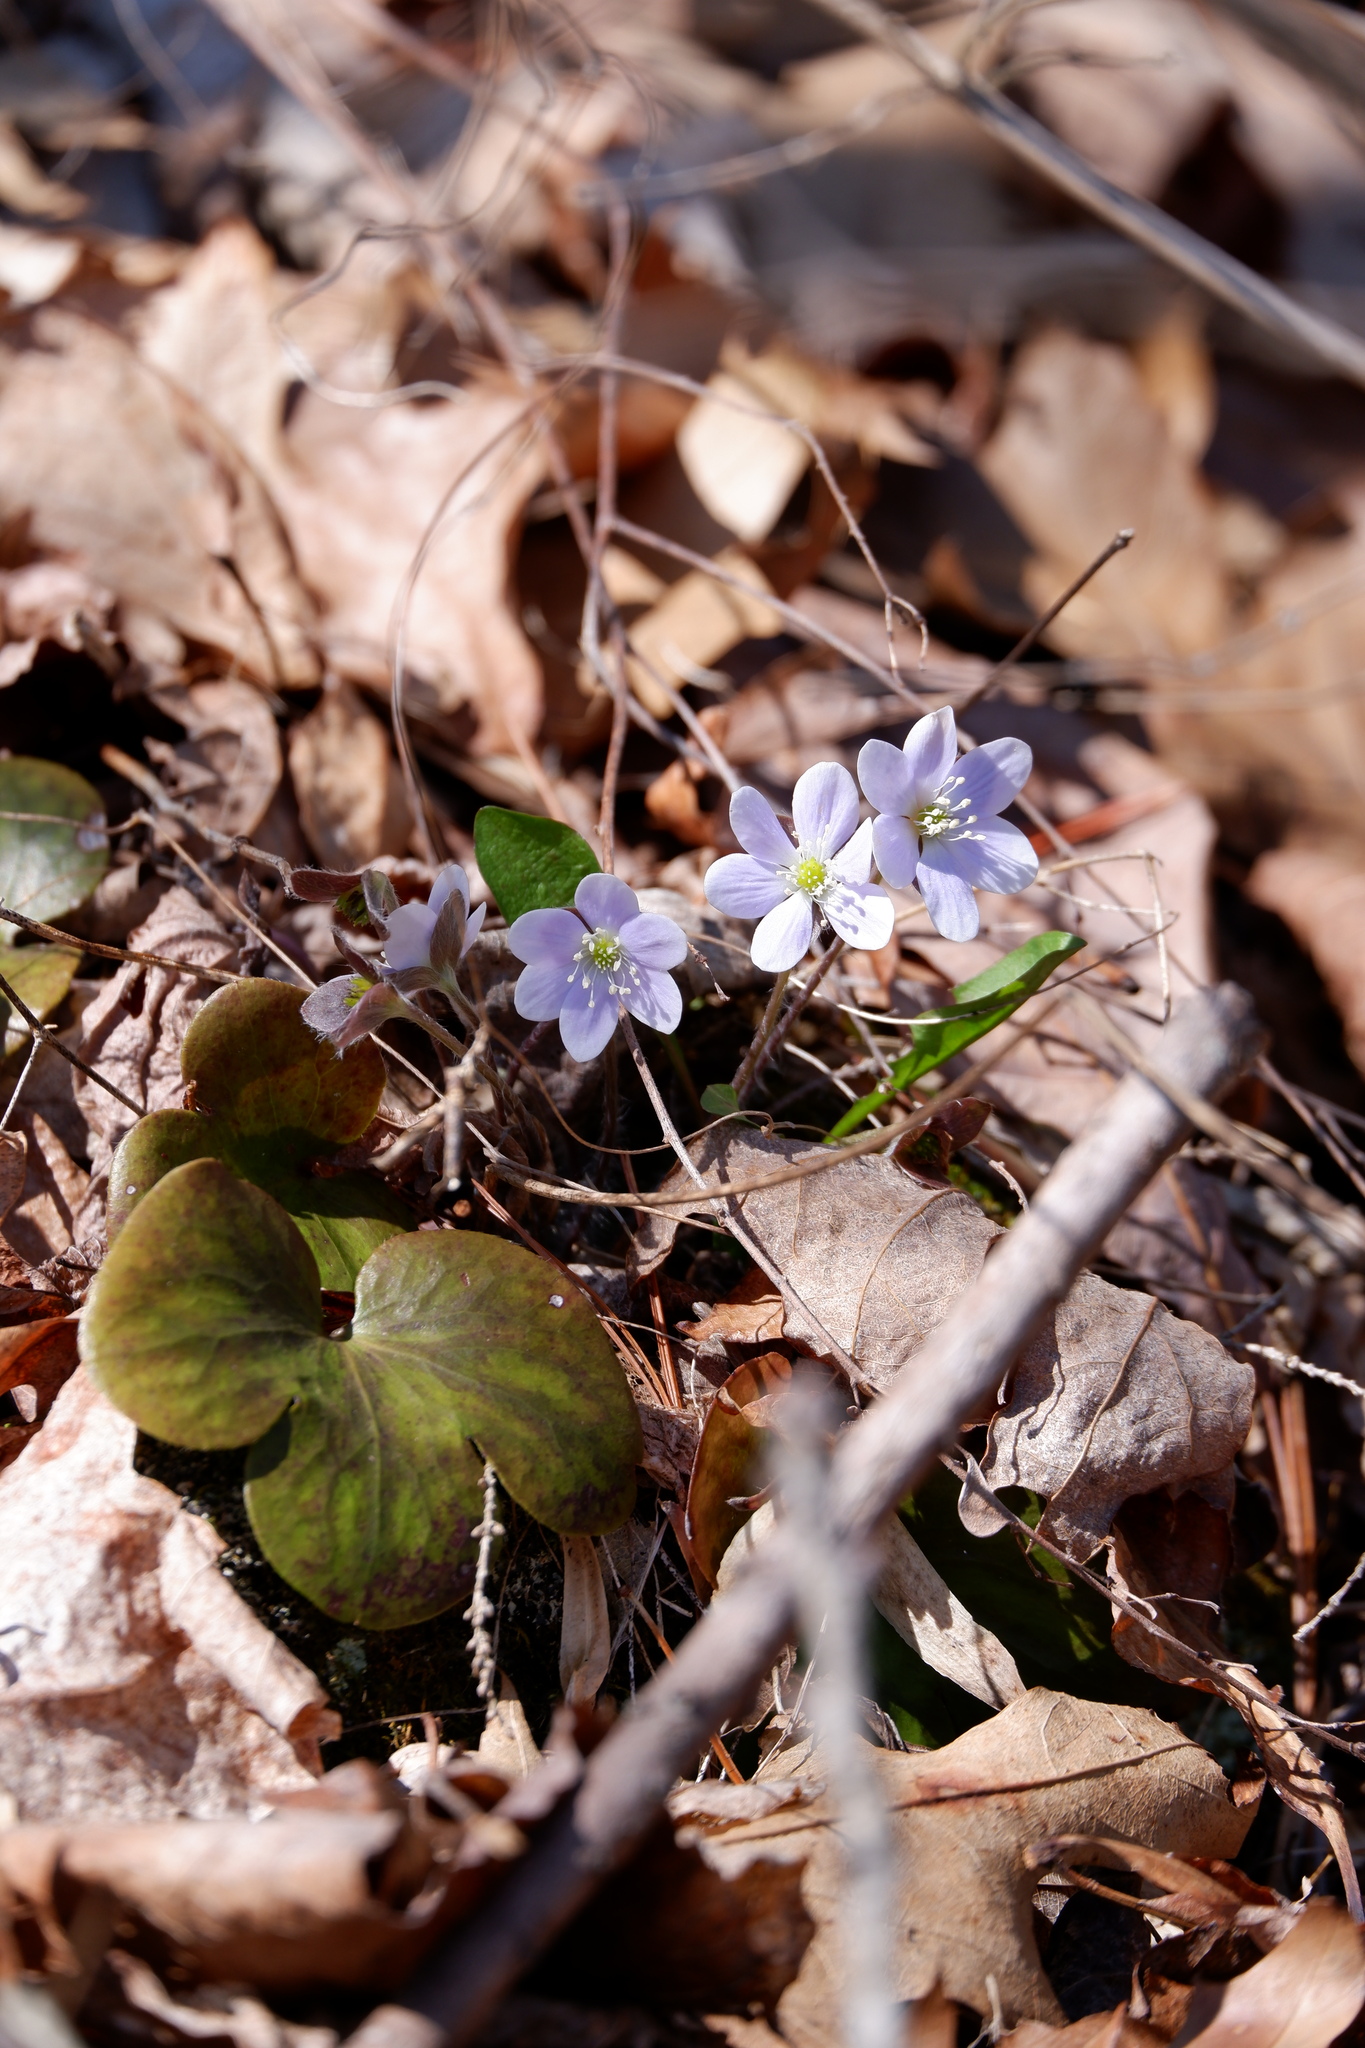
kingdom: Plantae
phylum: Tracheophyta
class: Magnoliopsida
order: Ranunculales
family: Ranunculaceae
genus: Hepatica
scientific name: Hepatica americana
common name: American hepatica
